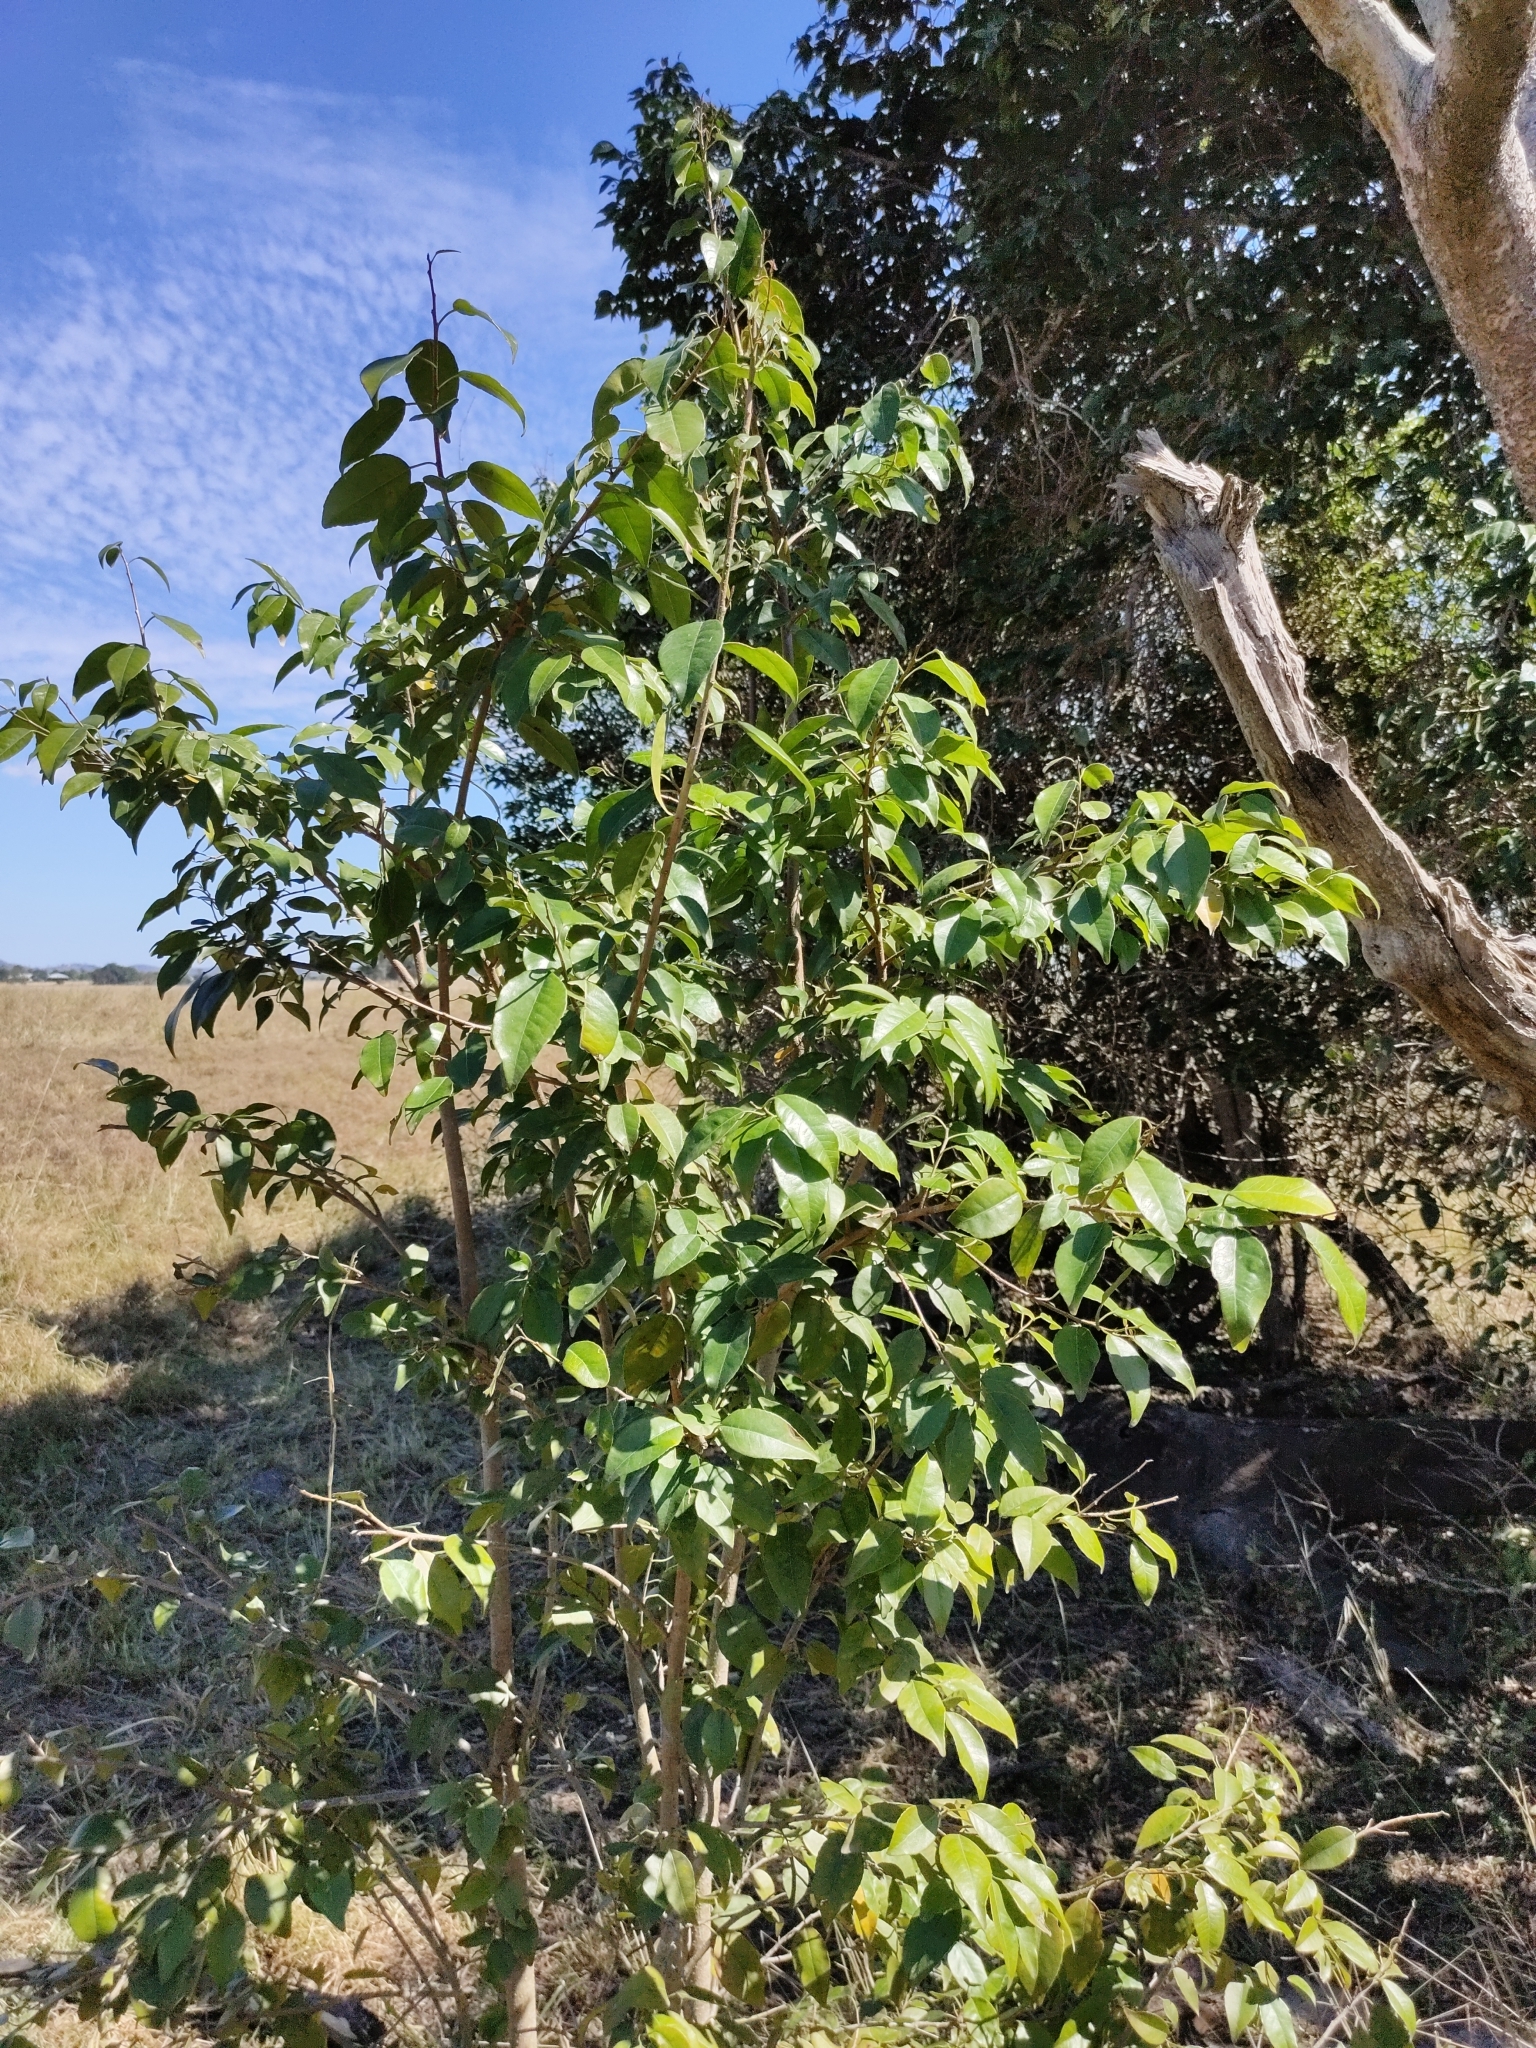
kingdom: Plantae
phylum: Tracheophyta
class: Magnoliopsida
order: Malpighiales
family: Euphorbiaceae
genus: Excoecaria
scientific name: Excoecaria dallachyana
